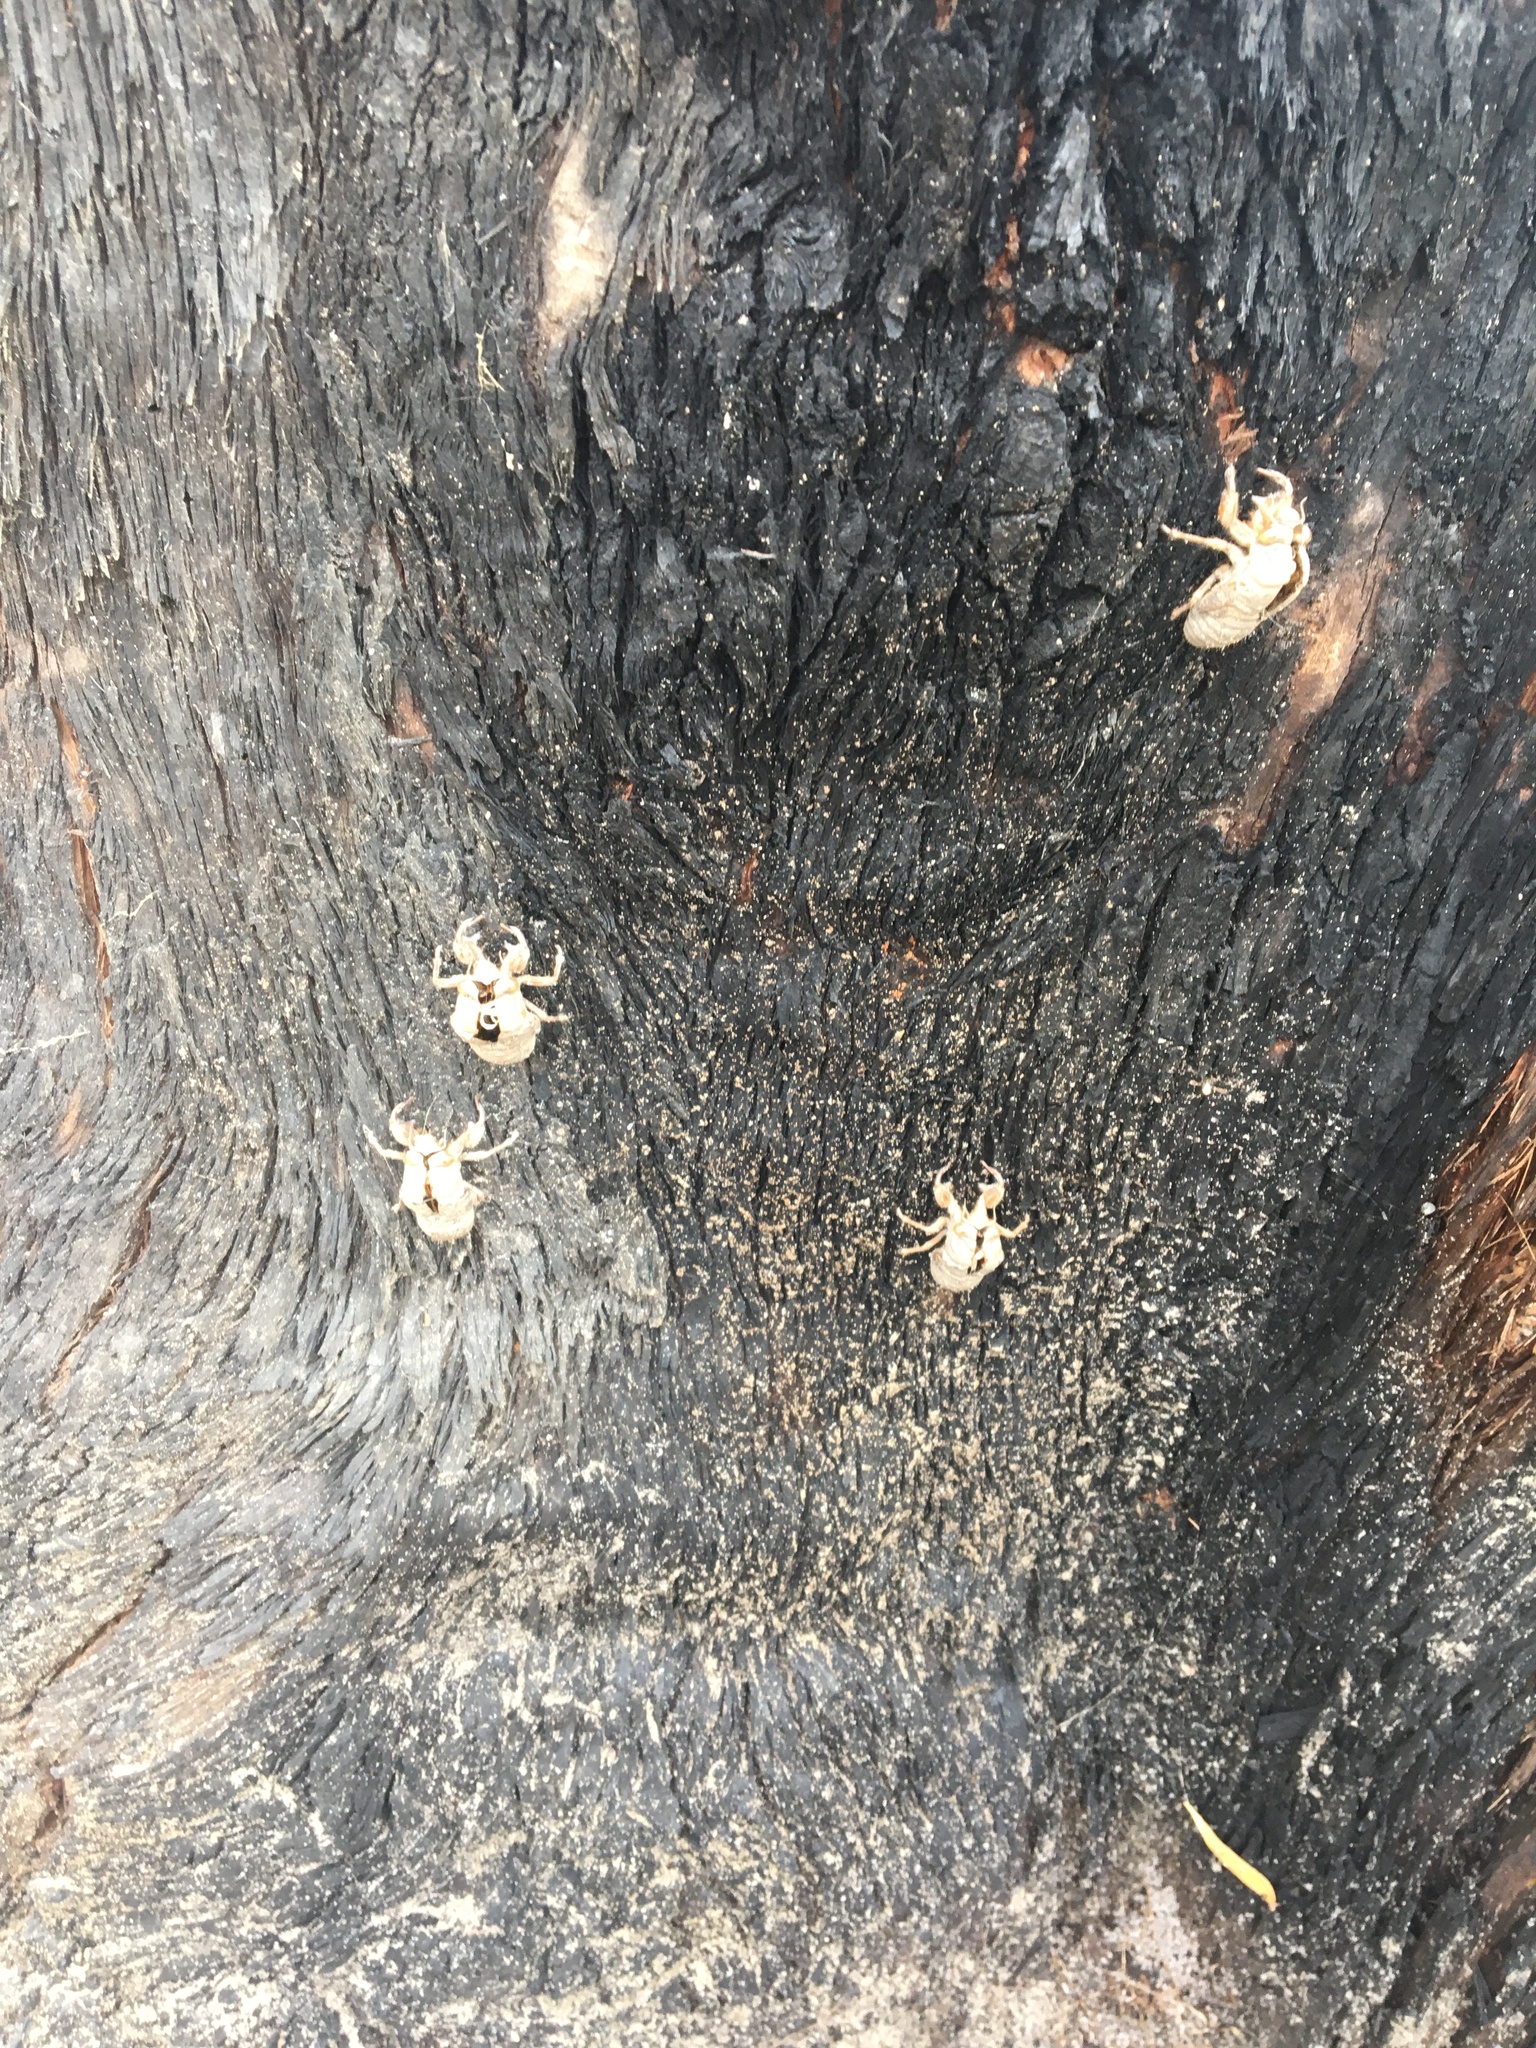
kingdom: Animalia
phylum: Arthropoda
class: Insecta
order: Hemiptera
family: Cicadidae
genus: Thopha
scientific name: Thopha saccata
